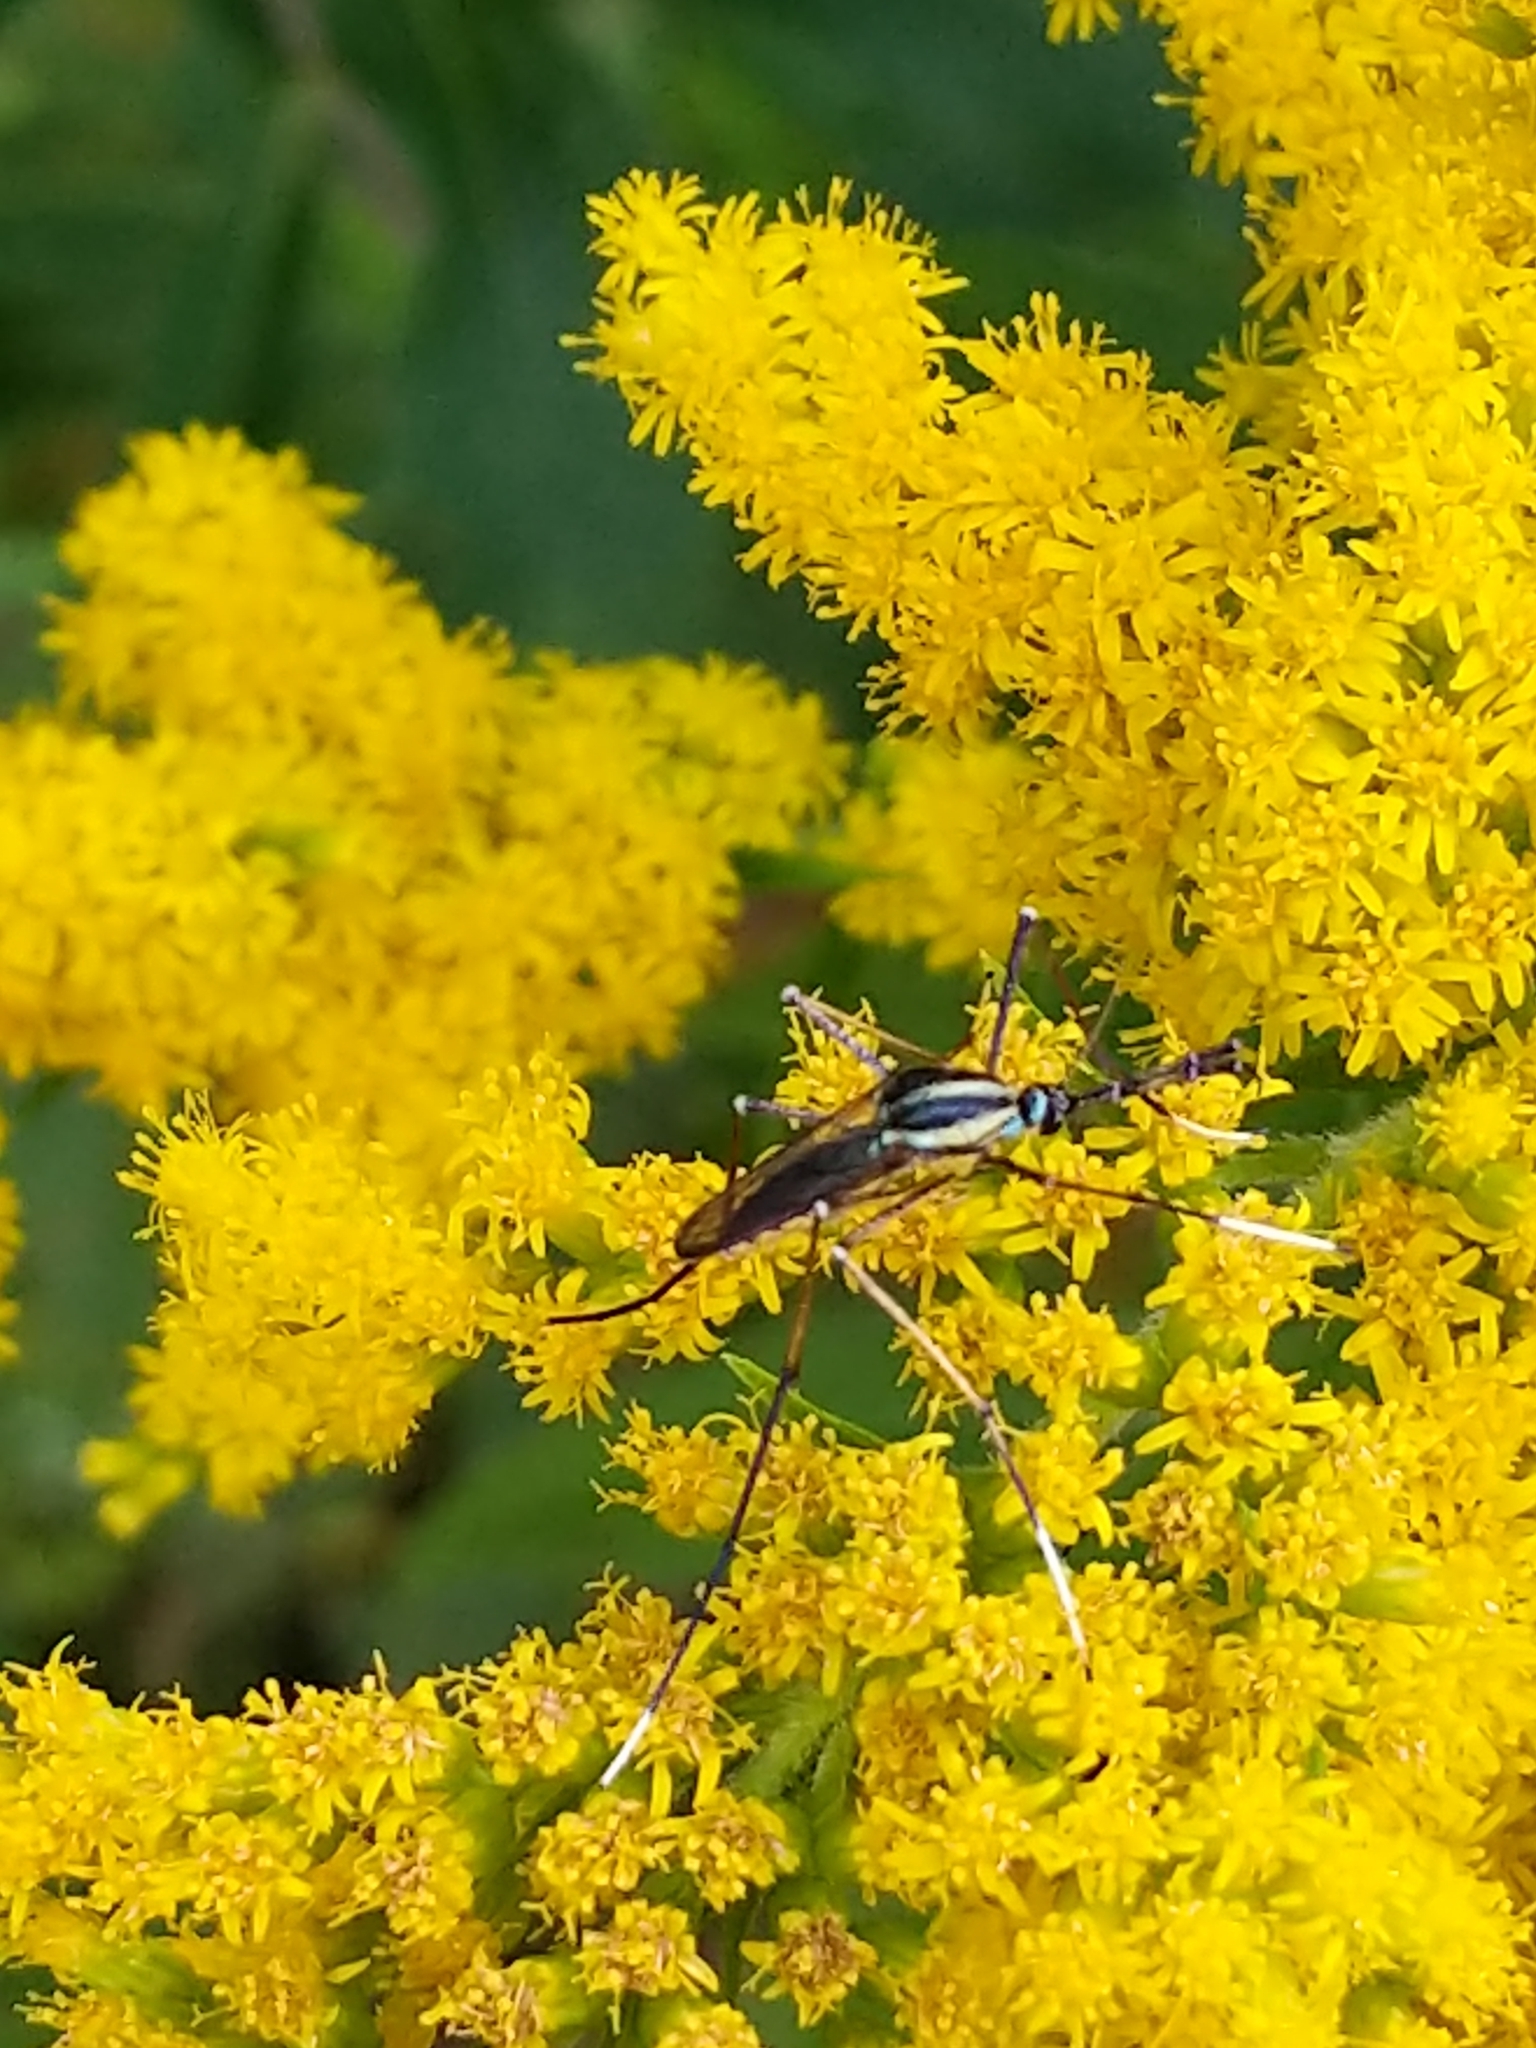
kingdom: Animalia
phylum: Arthropoda
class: Insecta
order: Diptera
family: Culicidae
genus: Toxorhynchites
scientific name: Toxorhynchites rutilus
